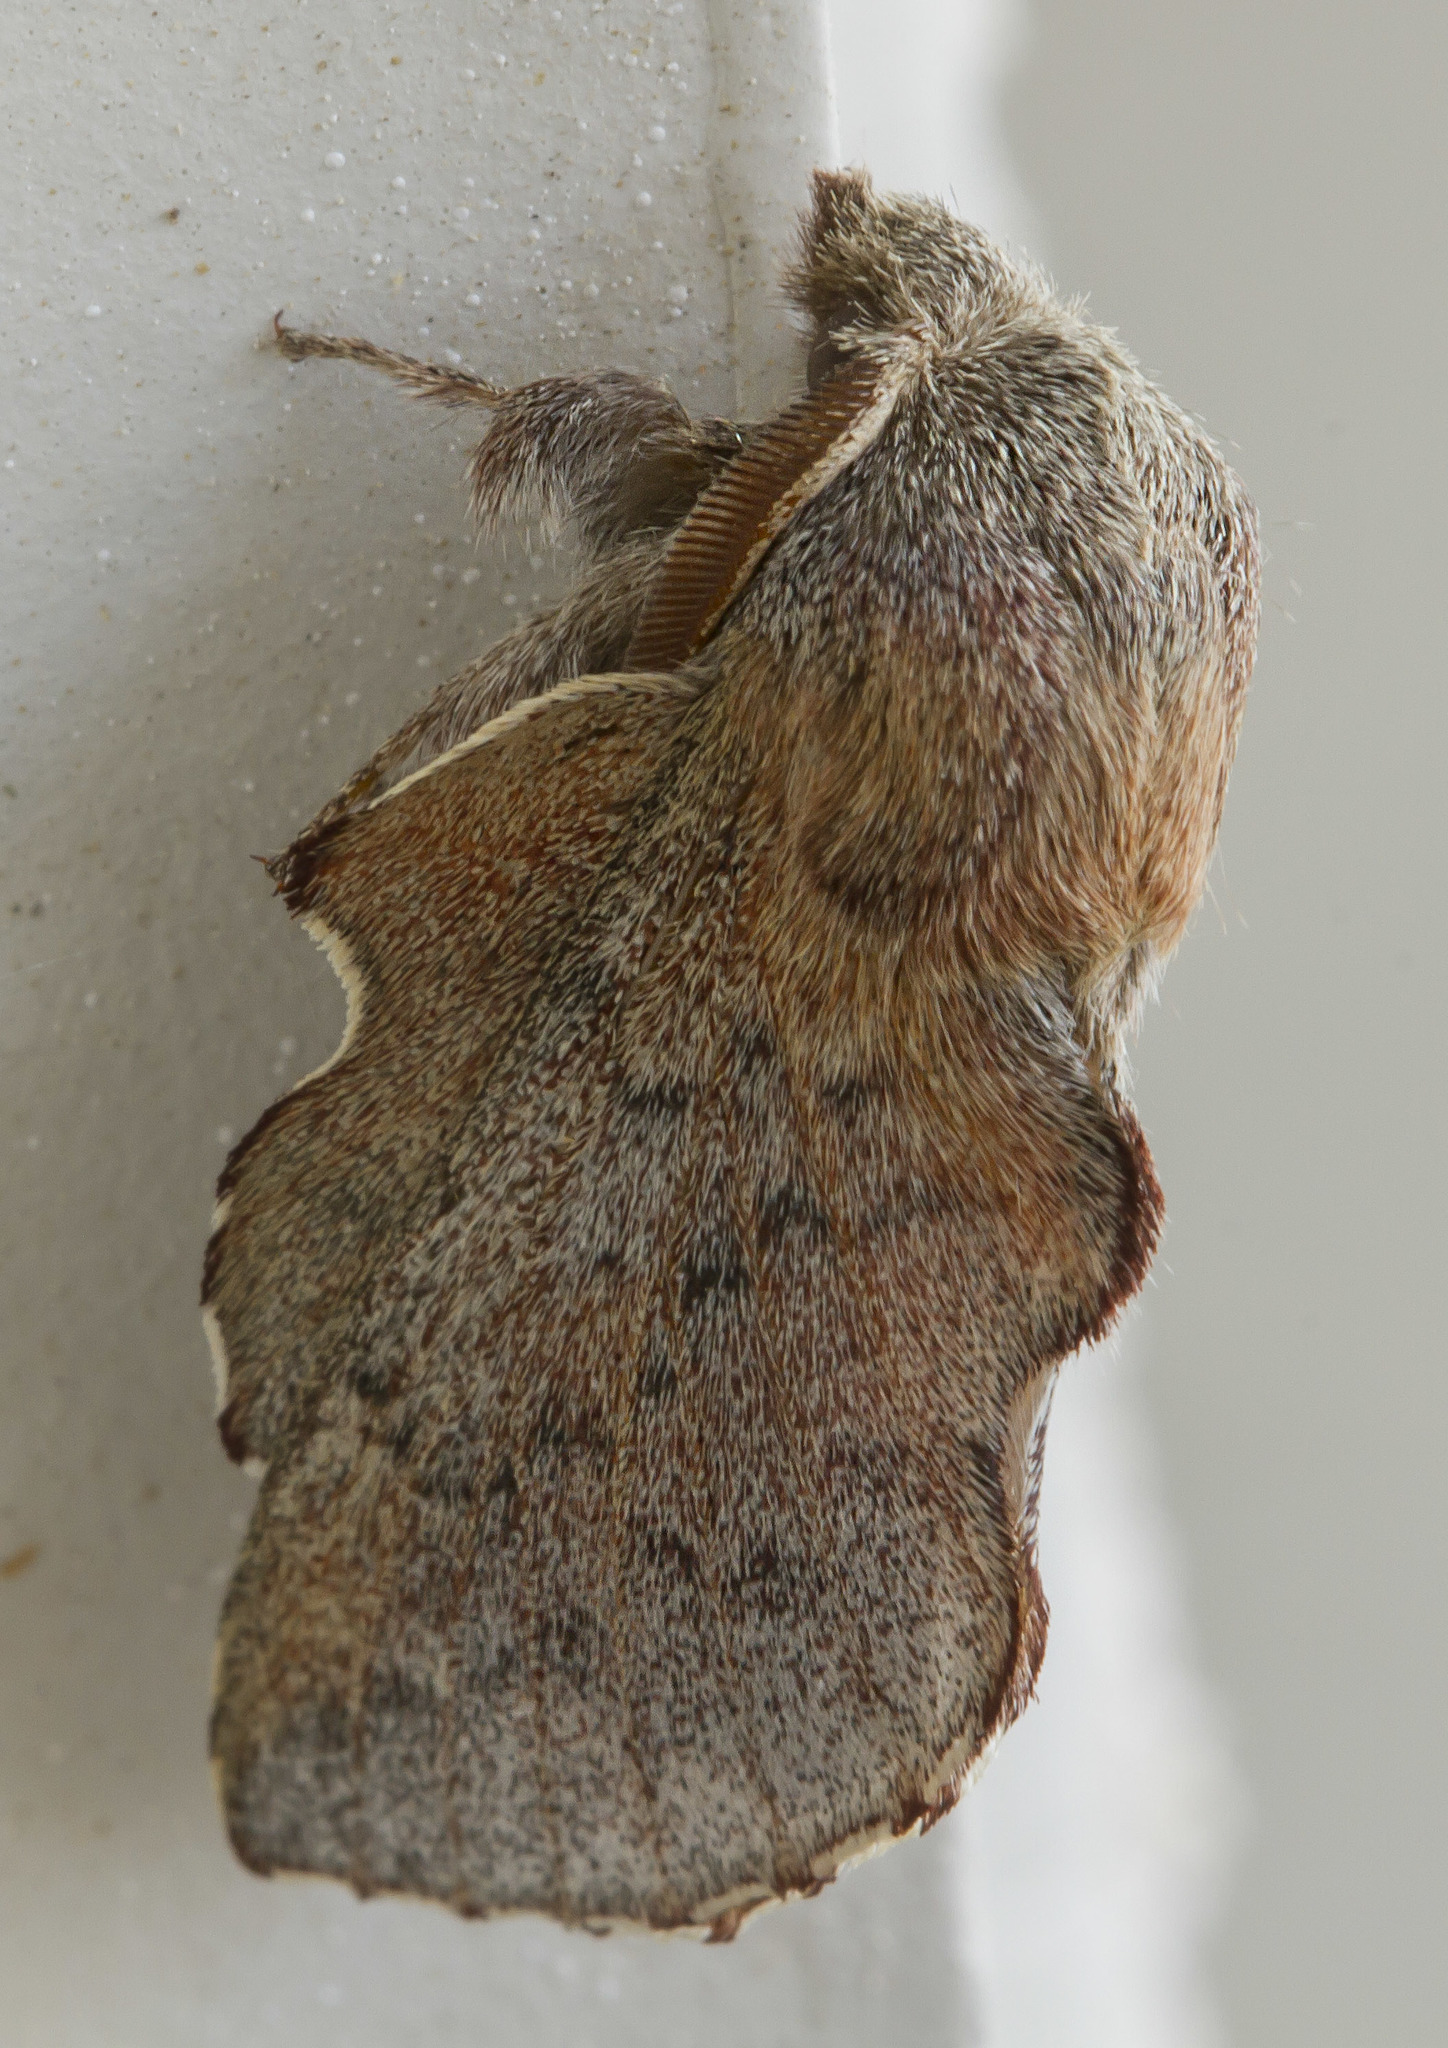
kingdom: Animalia
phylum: Arthropoda
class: Insecta
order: Lepidoptera
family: Lasiocampidae
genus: Phyllodesma
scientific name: Phyllodesma americana
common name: American lappet moth
